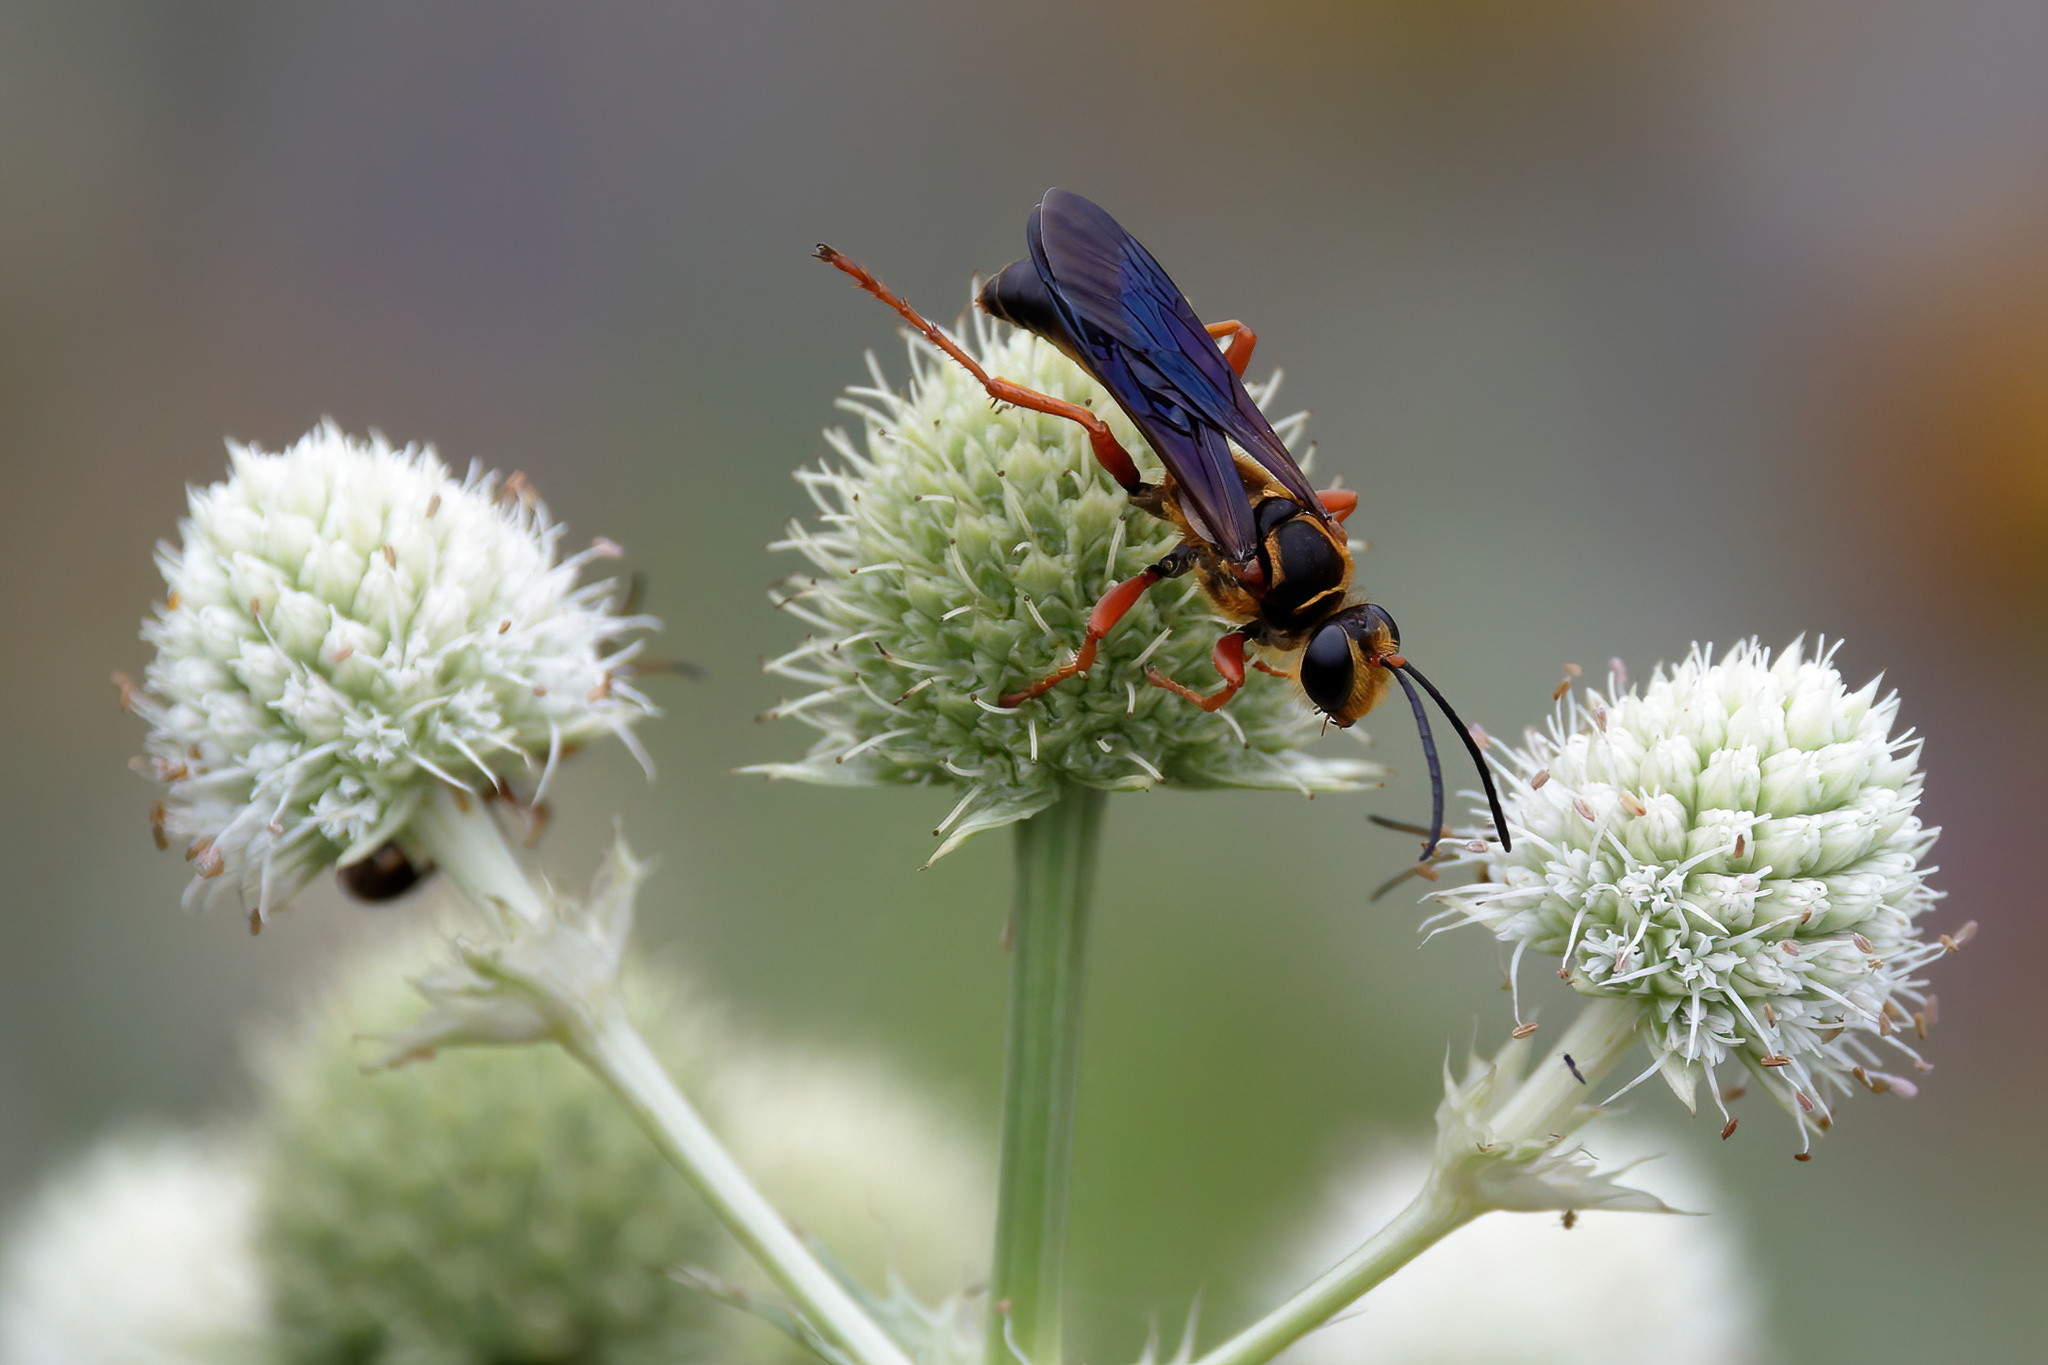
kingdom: Animalia
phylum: Arthropoda
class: Insecta
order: Hymenoptera
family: Sphecidae
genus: Sphex
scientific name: Sphex ichneumoneus
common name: Great golden digger wasp
